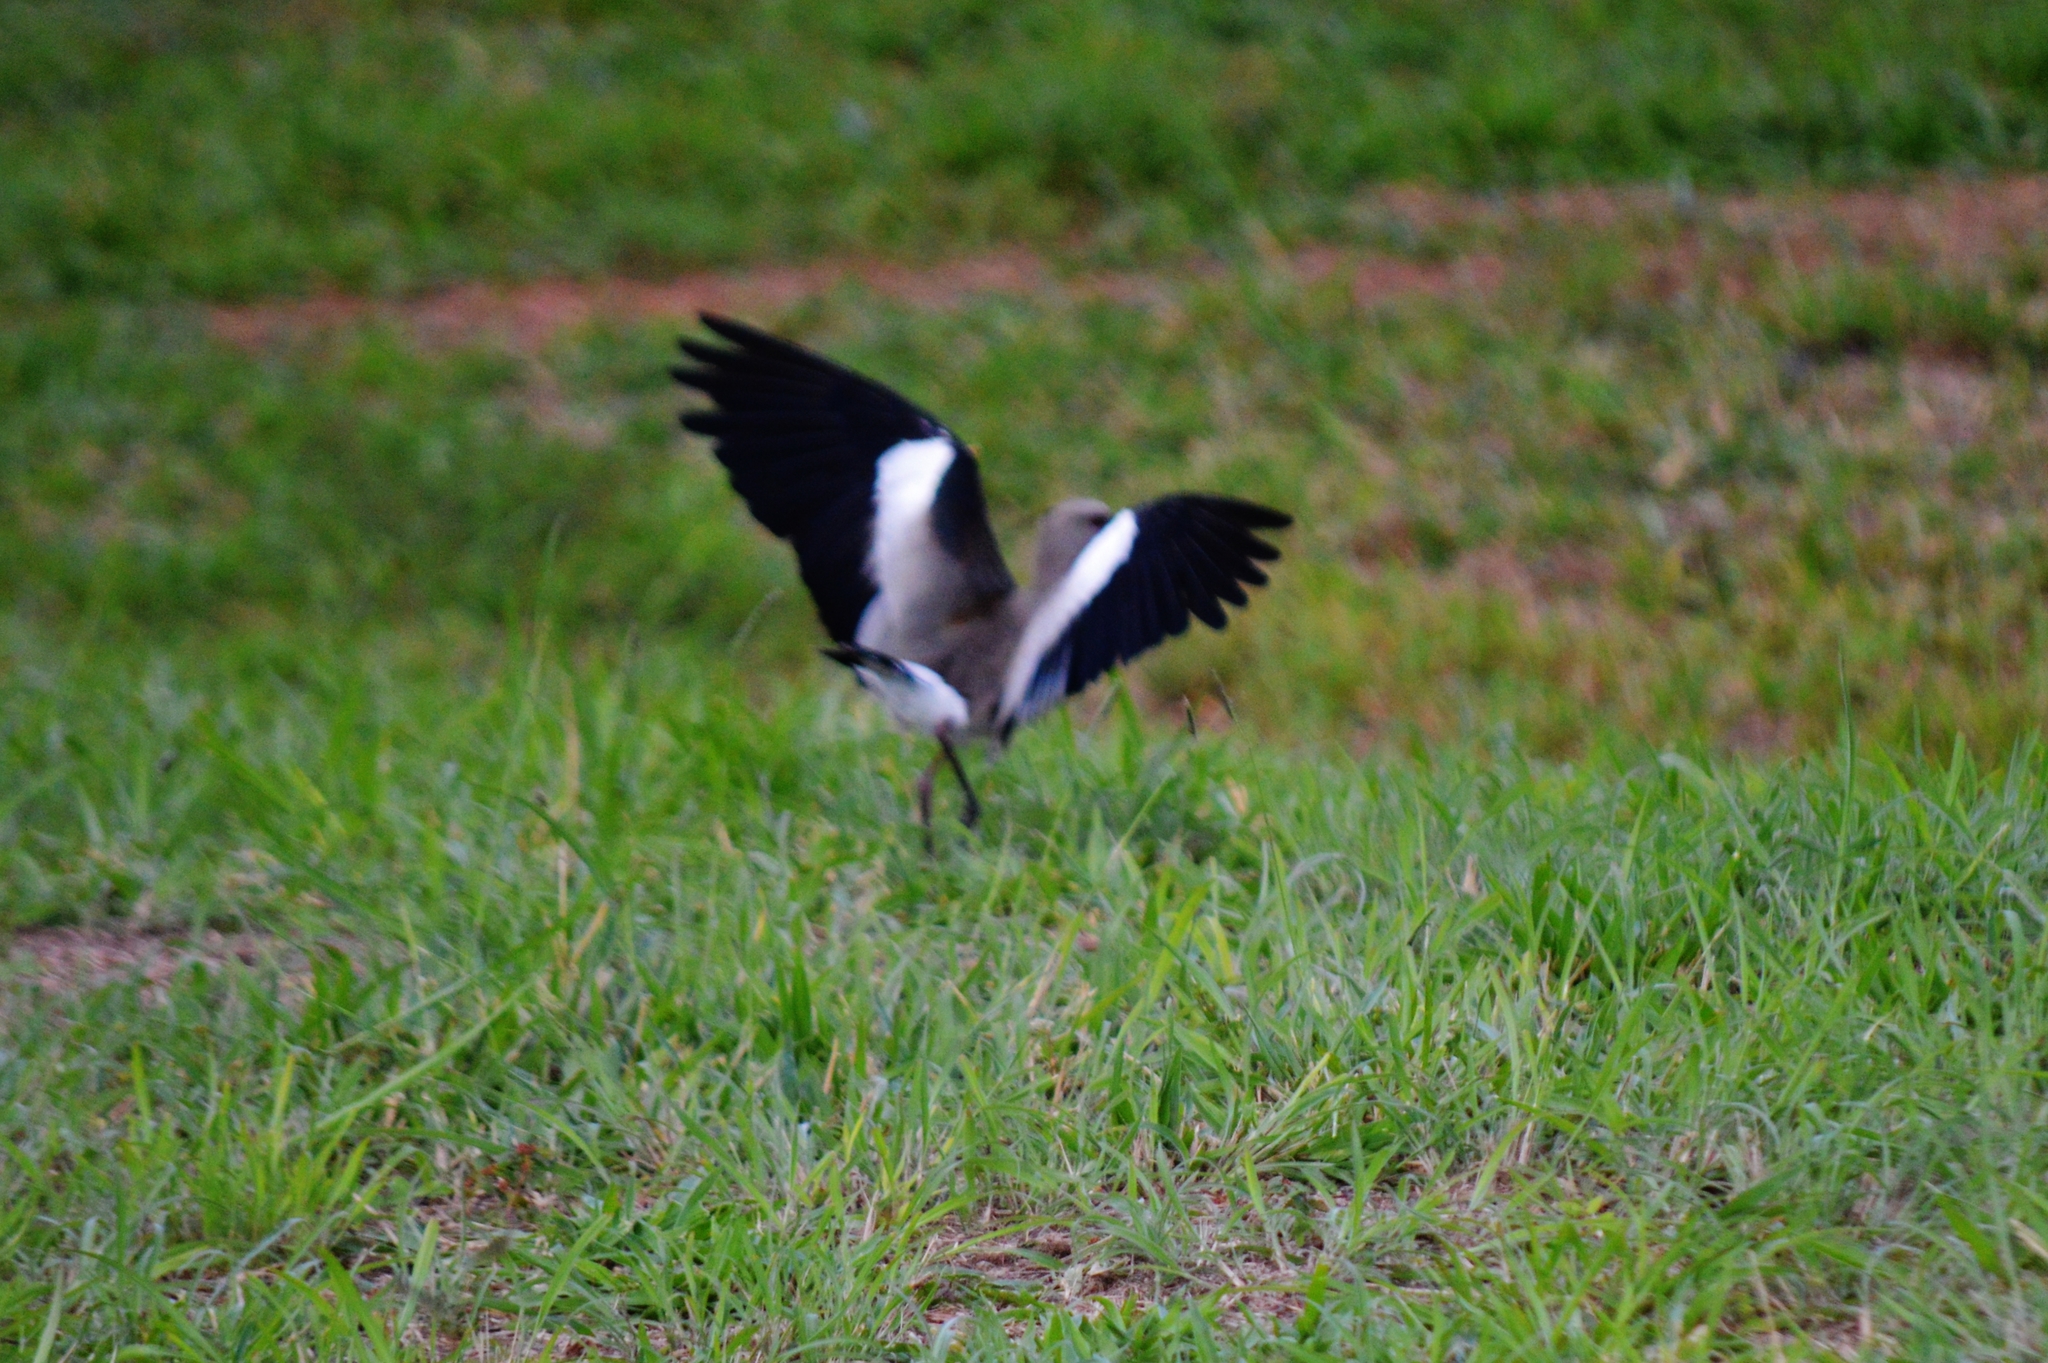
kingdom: Animalia
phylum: Chordata
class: Aves
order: Charadriiformes
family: Charadriidae
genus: Vanellus
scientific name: Vanellus chilensis
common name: Southern lapwing
